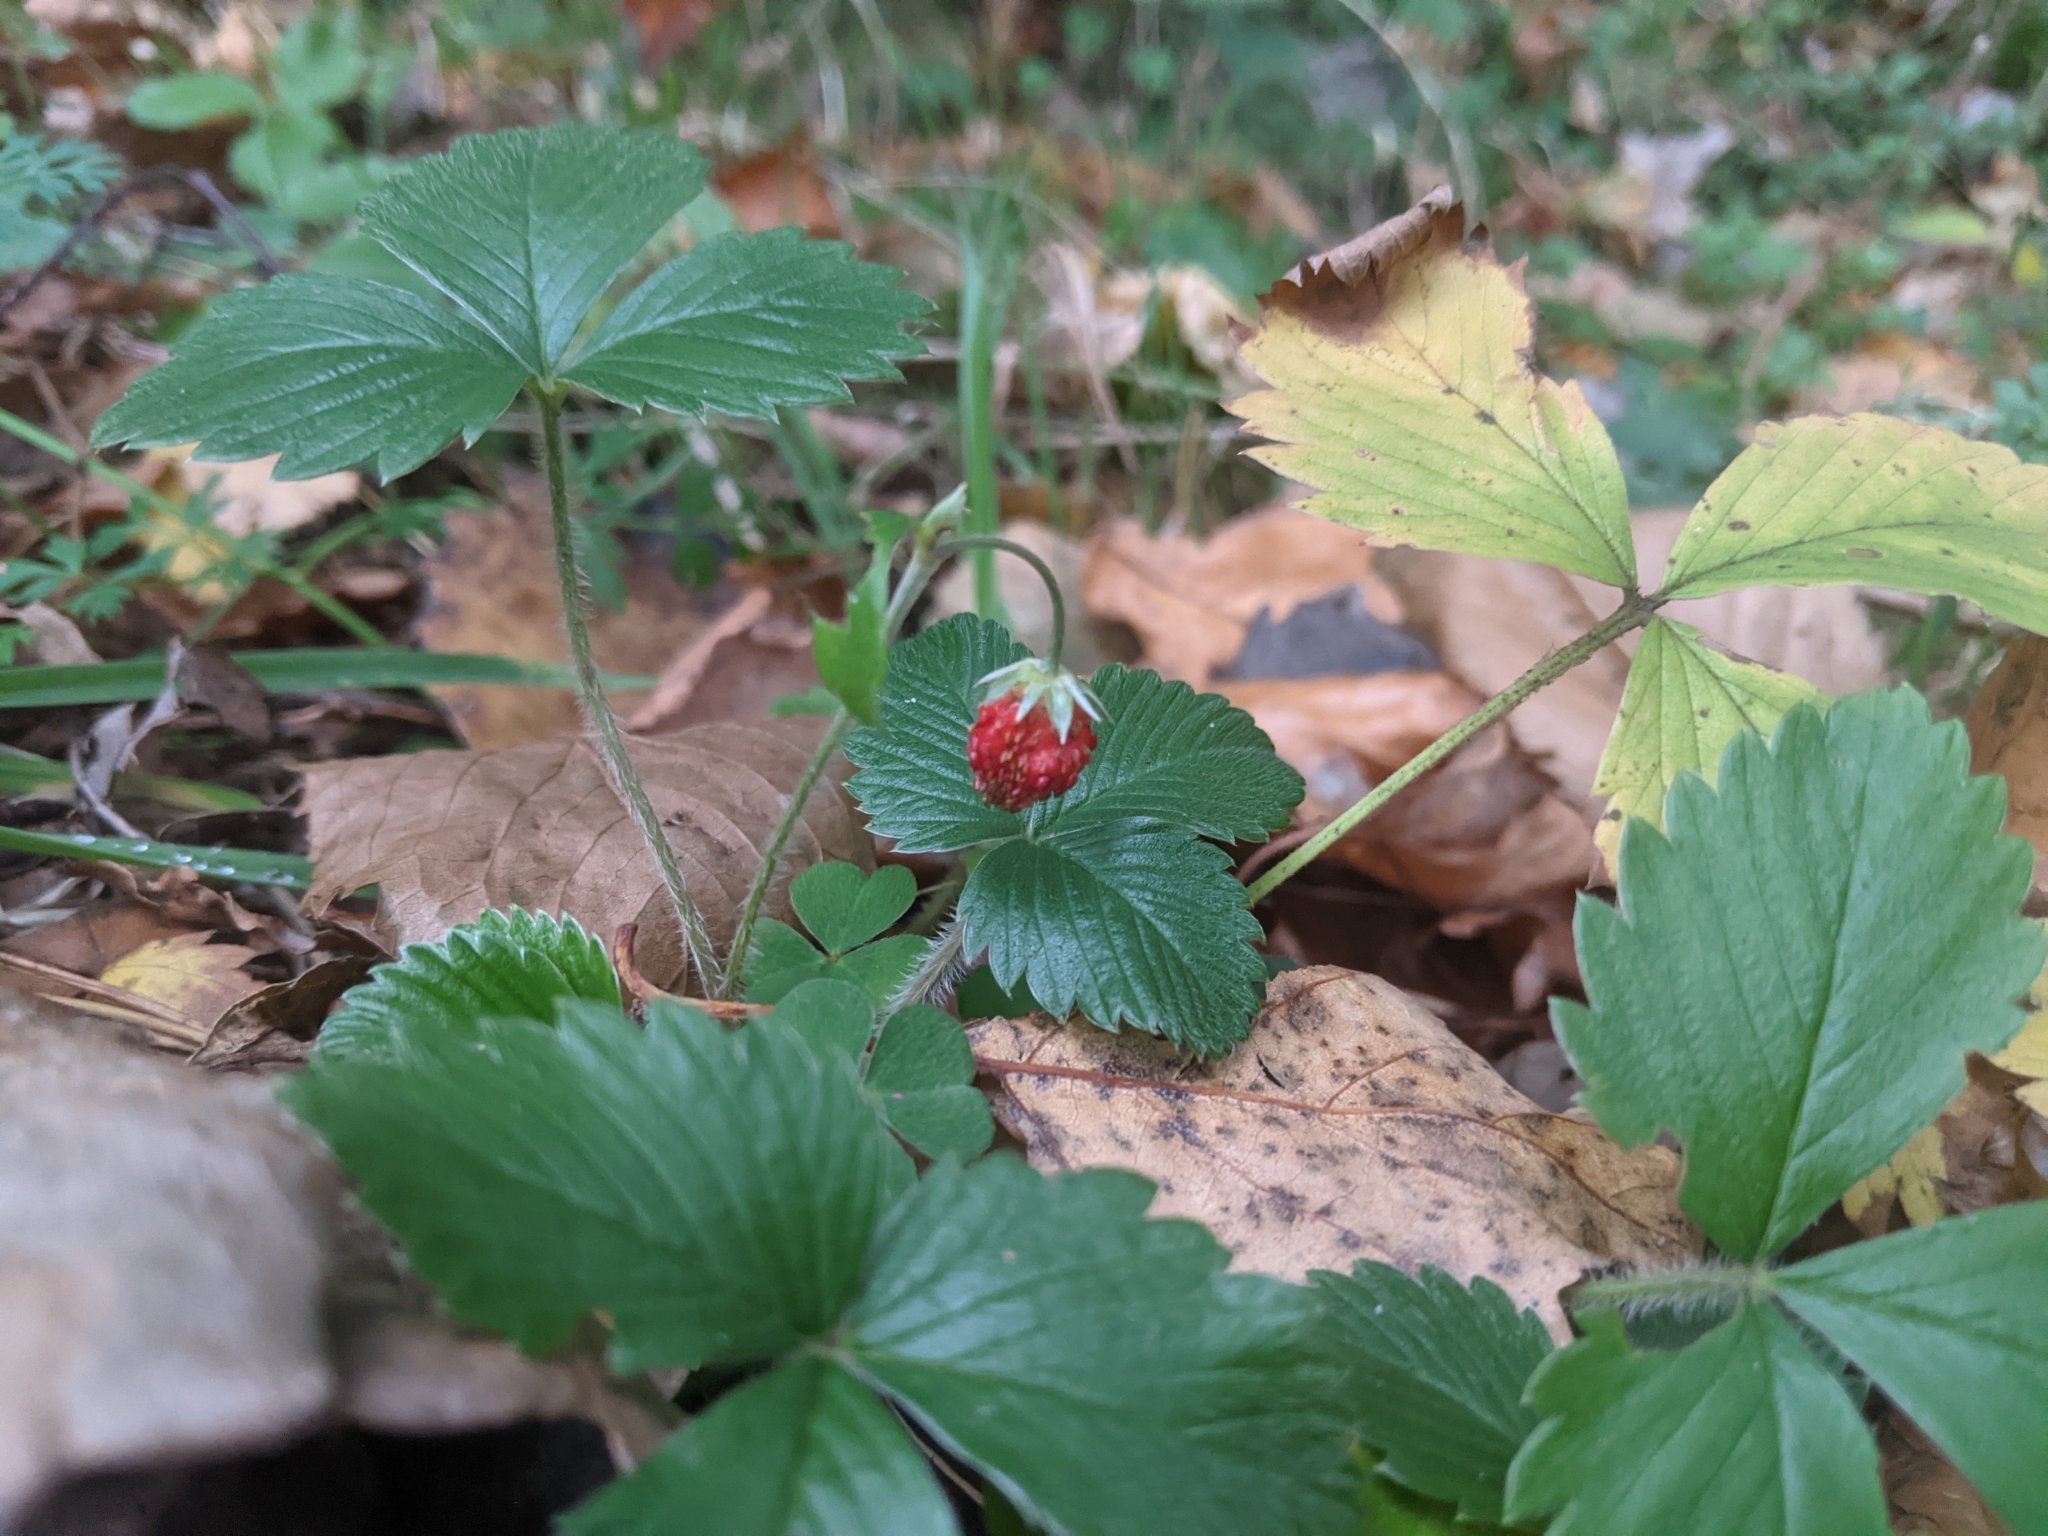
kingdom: Plantae
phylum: Tracheophyta
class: Magnoliopsida
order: Rosales
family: Rosaceae
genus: Fragaria
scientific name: Fragaria vesca
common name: Wild strawberry
